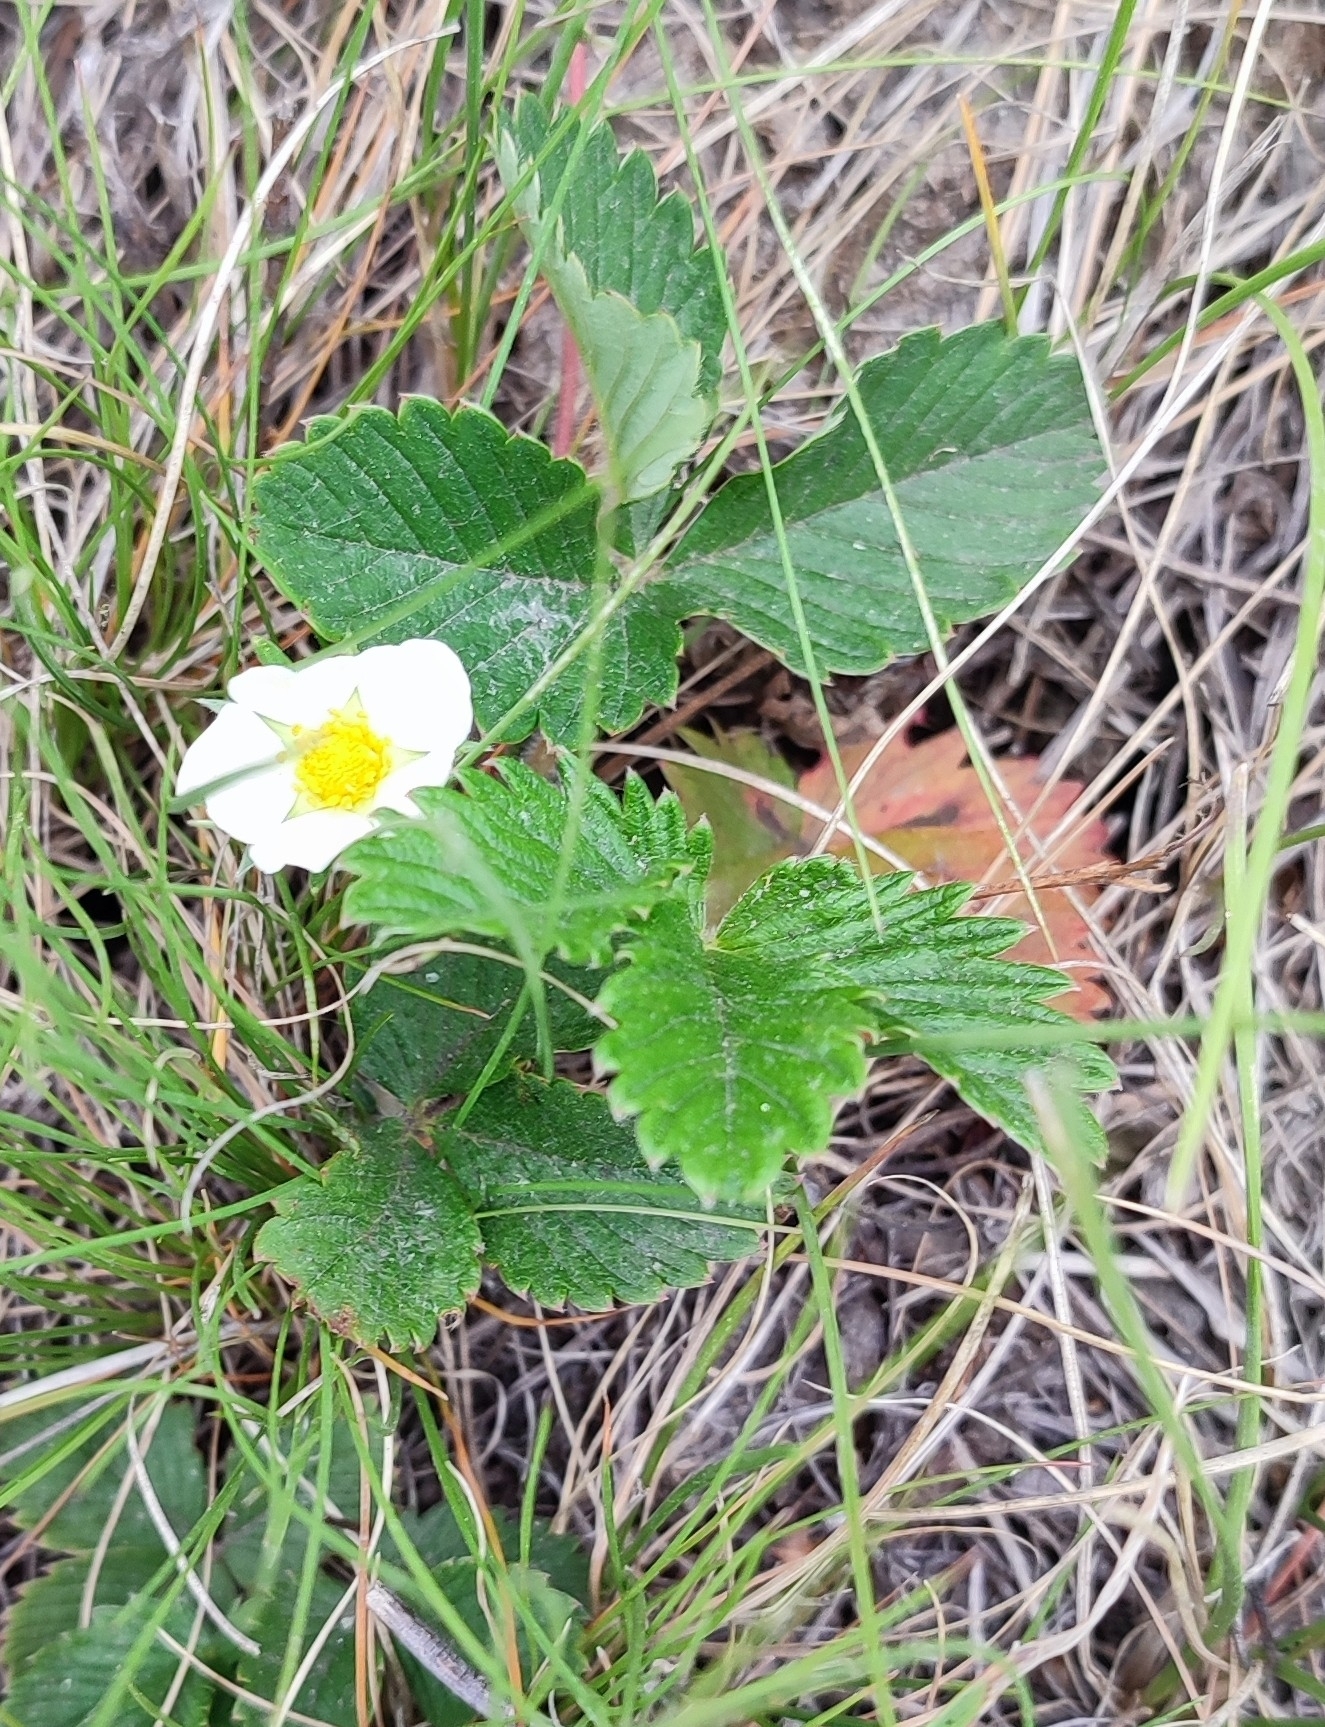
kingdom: Plantae
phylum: Tracheophyta
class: Magnoliopsida
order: Rosales
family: Rosaceae
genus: Fragaria
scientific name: Fragaria viridis
